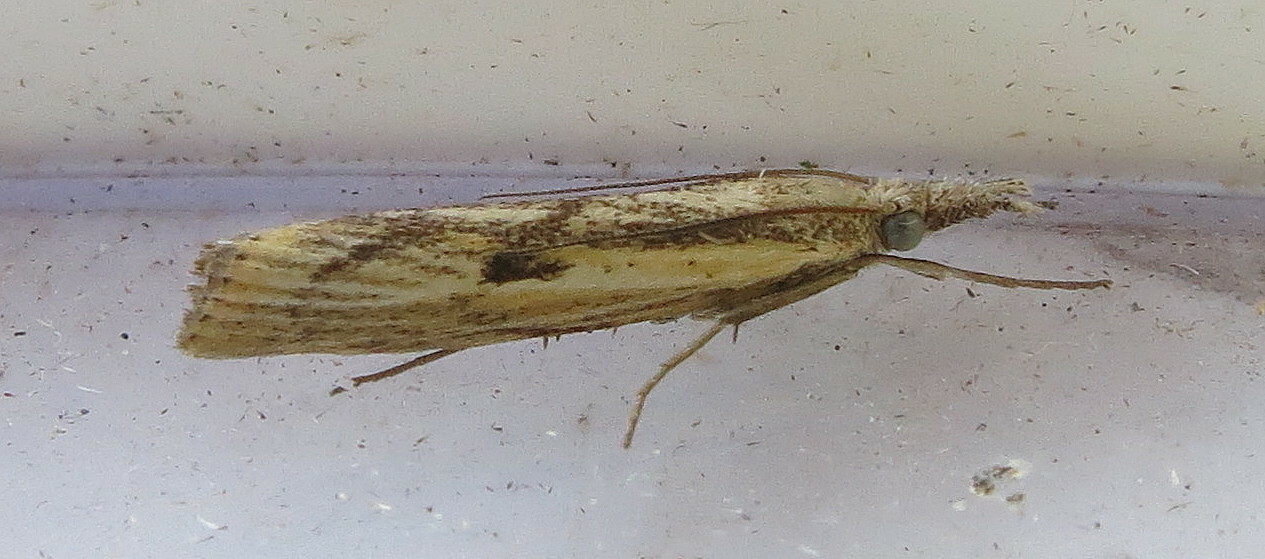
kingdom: Animalia
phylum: Arthropoda
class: Insecta
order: Lepidoptera
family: Crambidae
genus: Agriphila
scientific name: Agriphila inquinatella
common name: Barred grass-veneer
